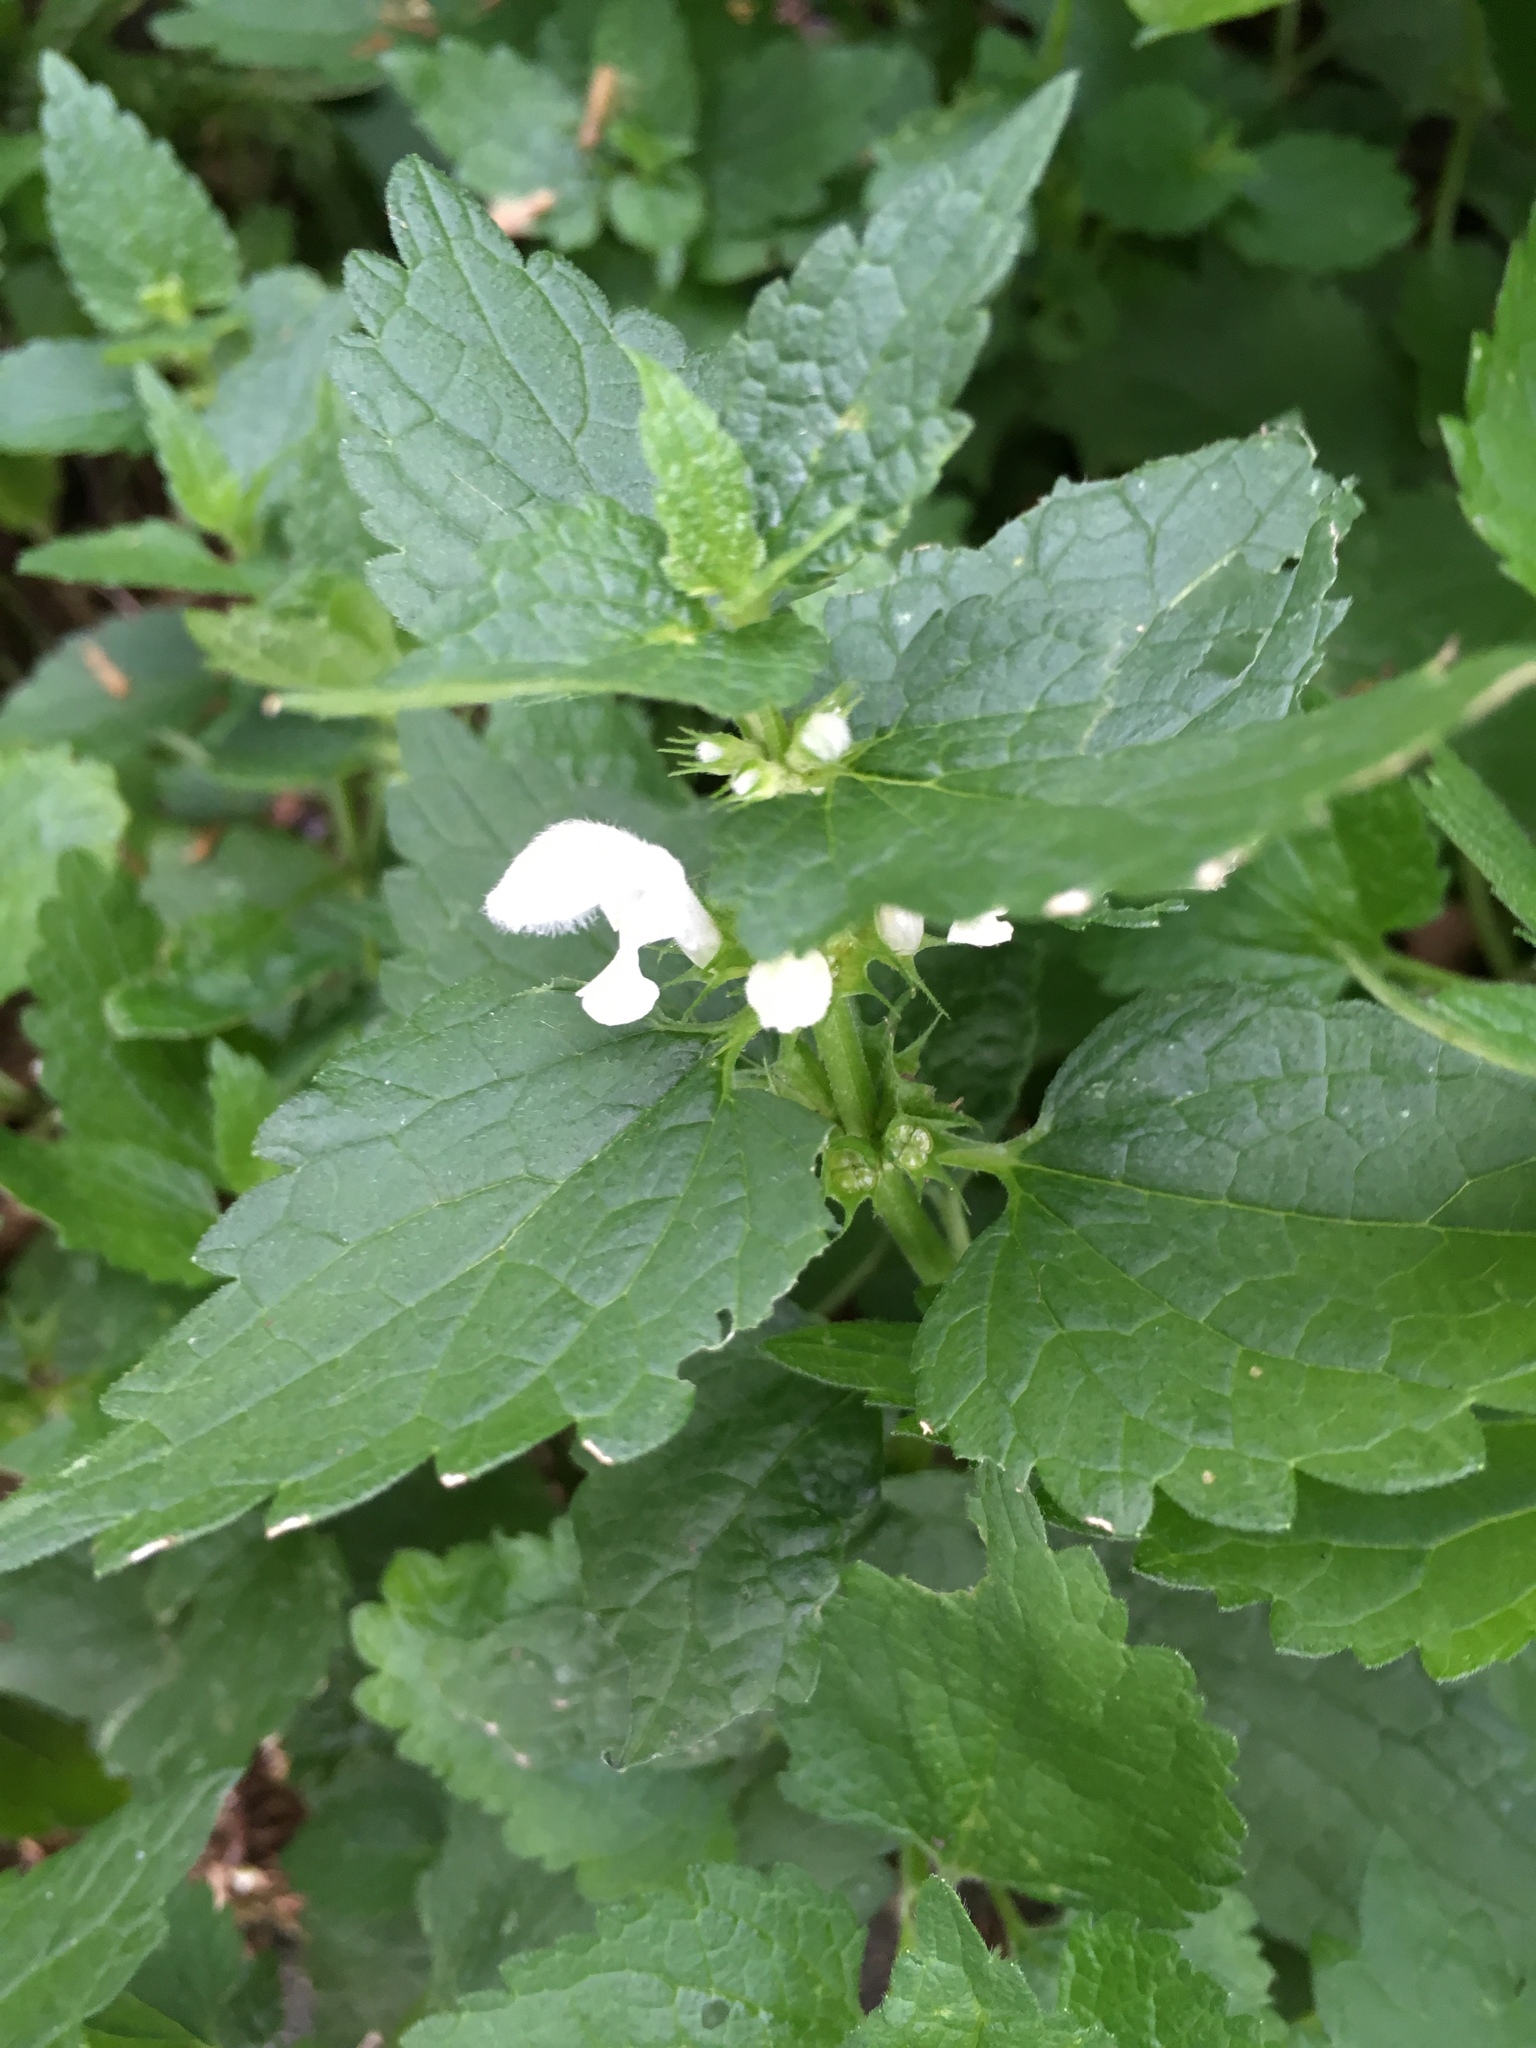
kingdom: Plantae
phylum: Tracheophyta
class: Magnoliopsida
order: Lamiales
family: Lamiaceae
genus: Lamium
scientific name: Lamium album
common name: White dead-nettle
